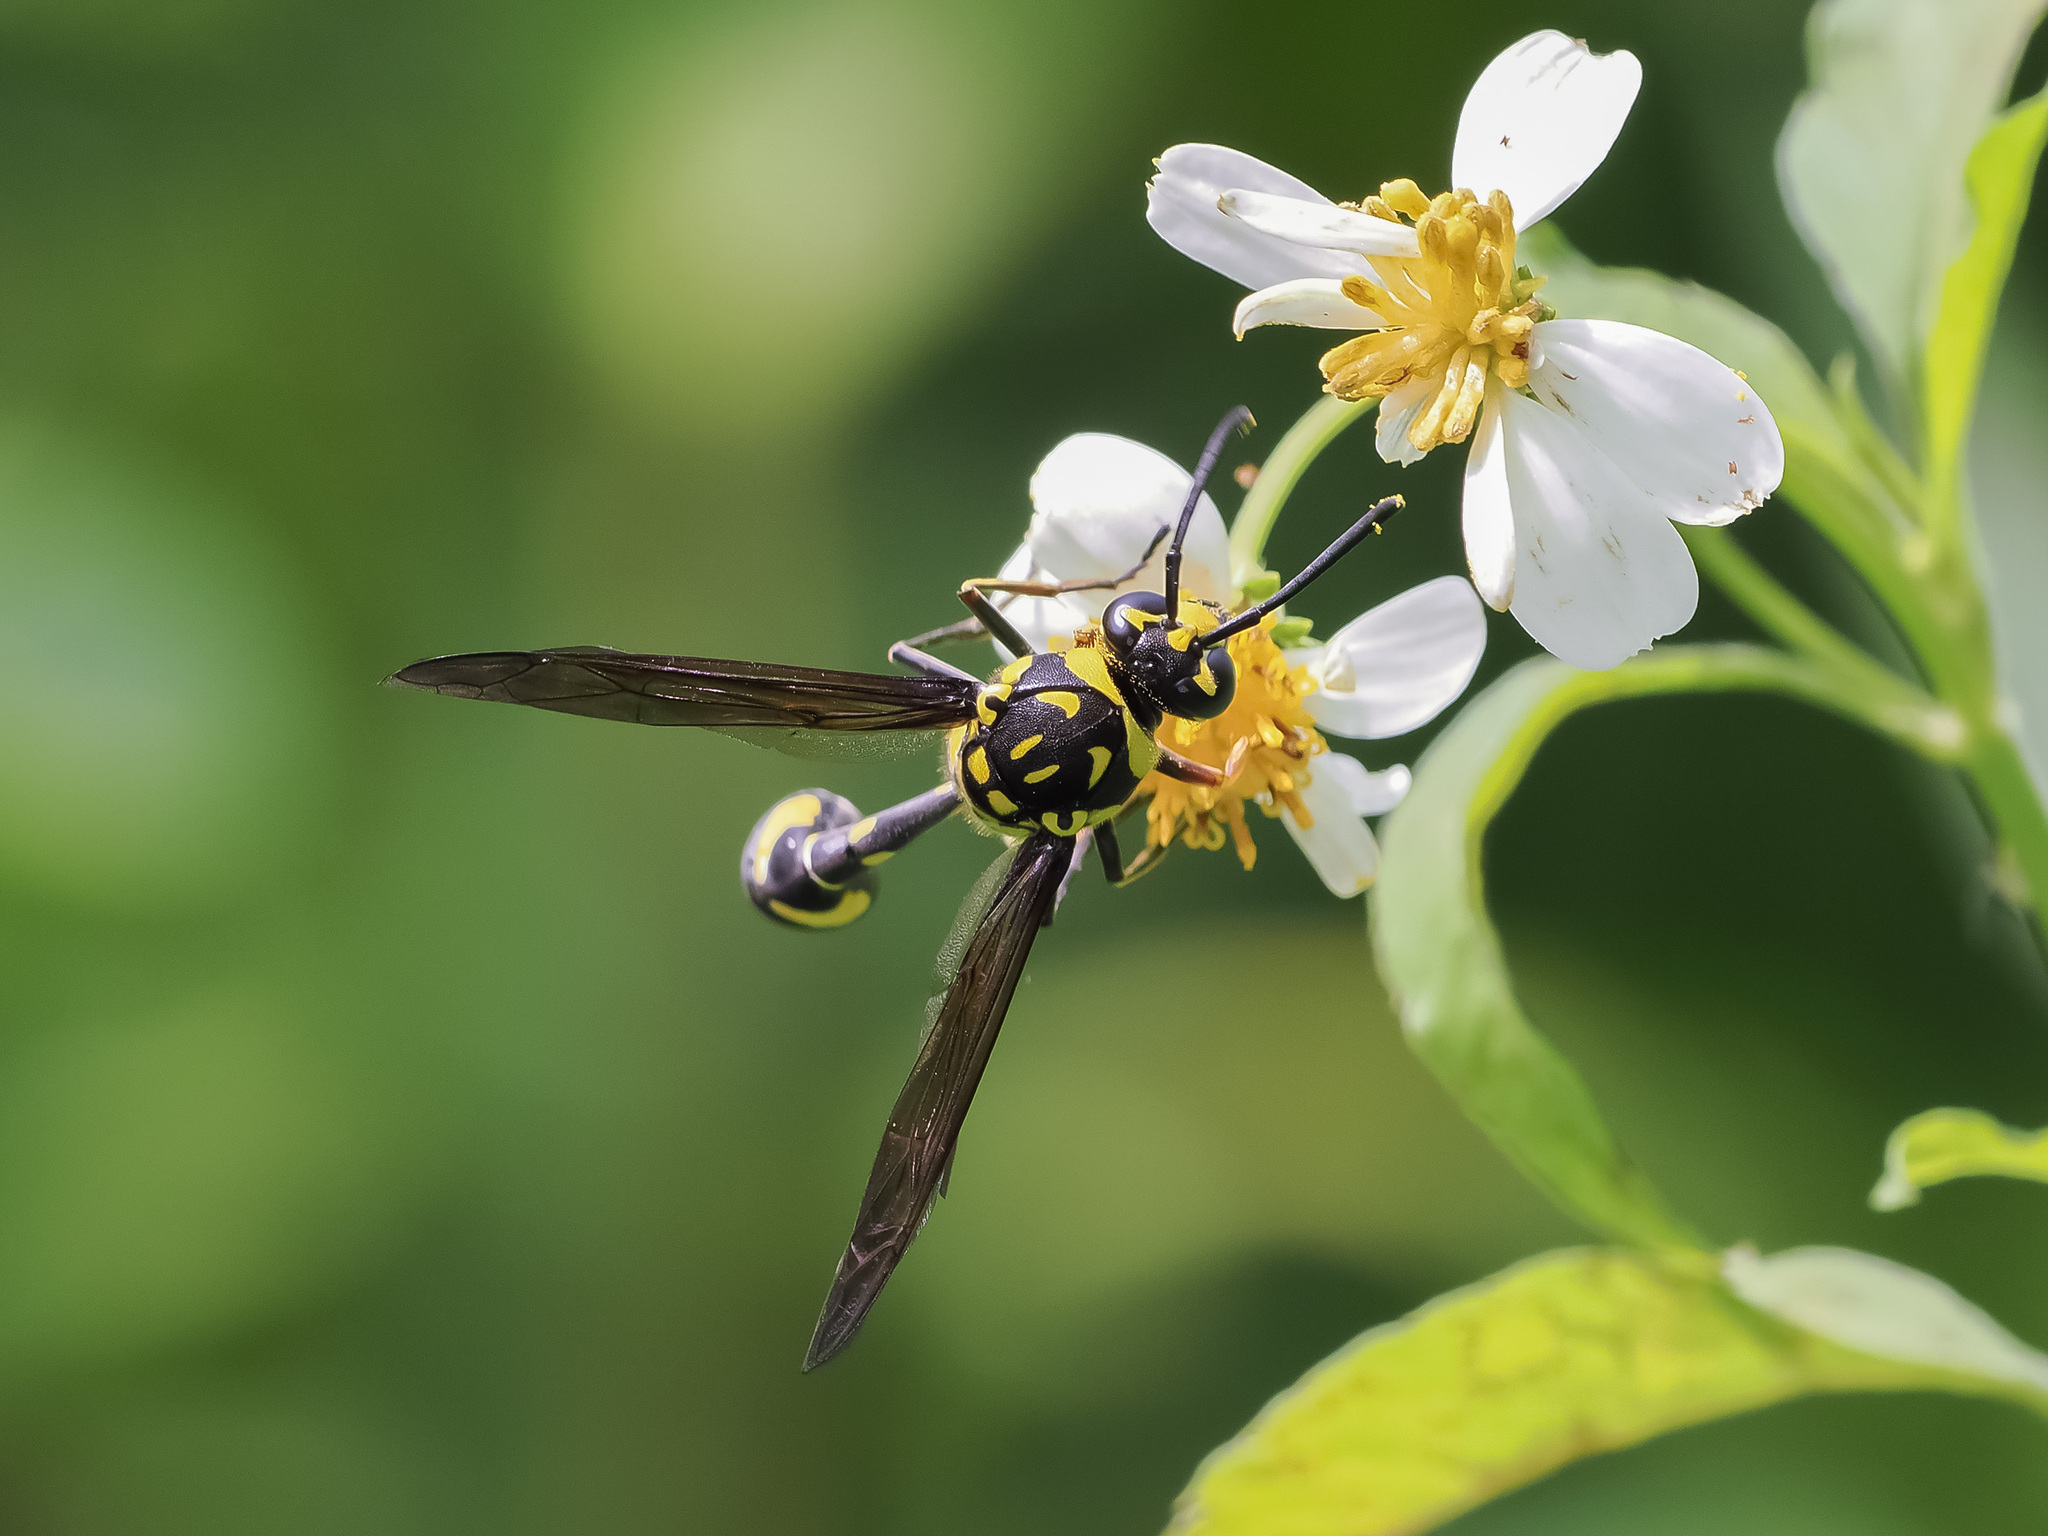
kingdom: Animalia
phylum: Arthropoda
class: Insecta
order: Hymenoptera
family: Eumenidae
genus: Phimenes
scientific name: Phimenes flavopictus
